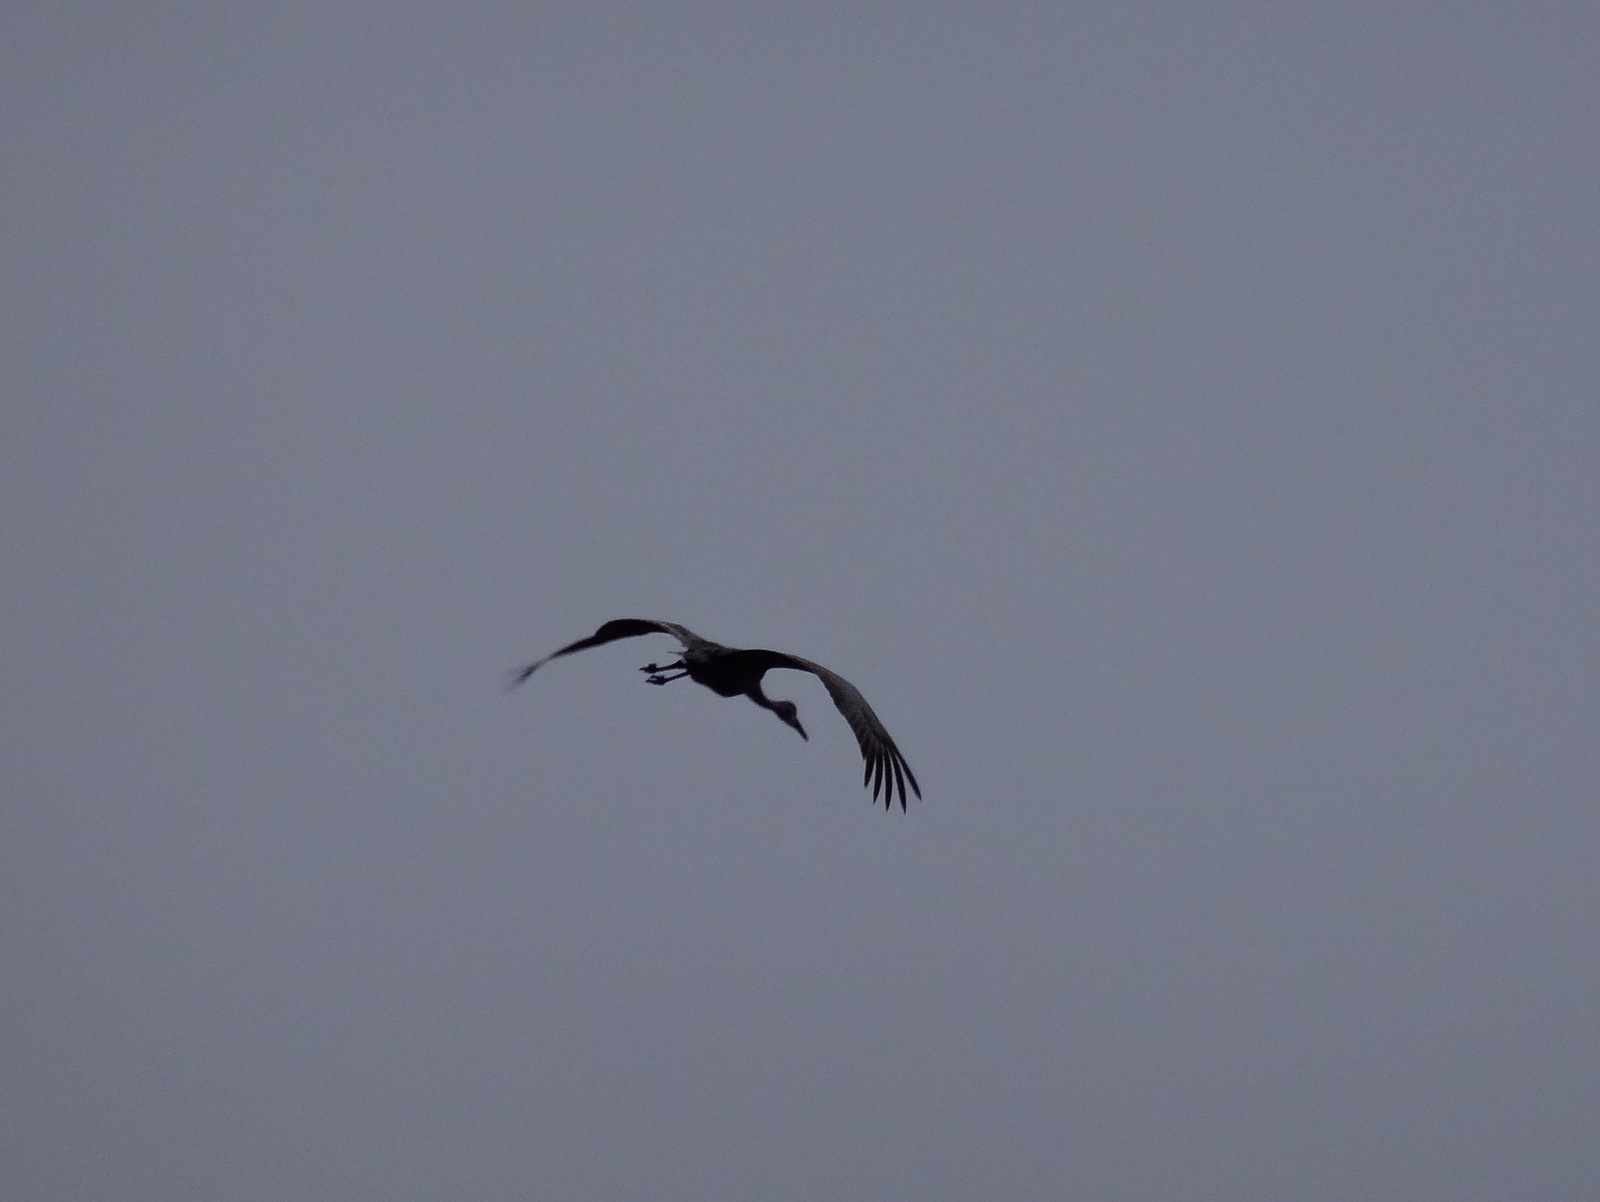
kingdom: Animalia
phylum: Chordata
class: Aves
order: Gruiformes
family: Gruidae
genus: Grus
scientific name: Grus canadensis
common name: Sandhill crane
